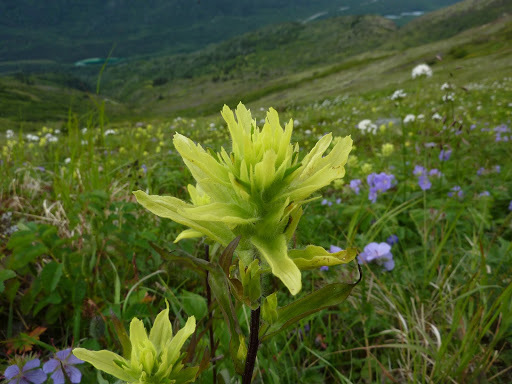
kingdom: Plantae
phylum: Tracheophyta
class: Magnoliopsida
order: Lamiales
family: Orobanchaceae
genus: Castilleja
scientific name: Castilleja unalaschcensis
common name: Unalaska paintbrush
